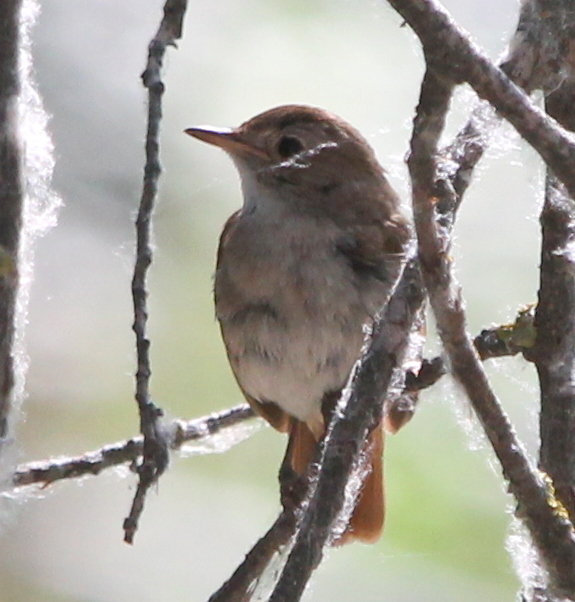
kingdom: Animalia
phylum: Chordata
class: Aves
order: Passeriformes
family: Muscicapidae
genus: Luscinia
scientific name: Luscinia megarhynchos
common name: Common nightingale
